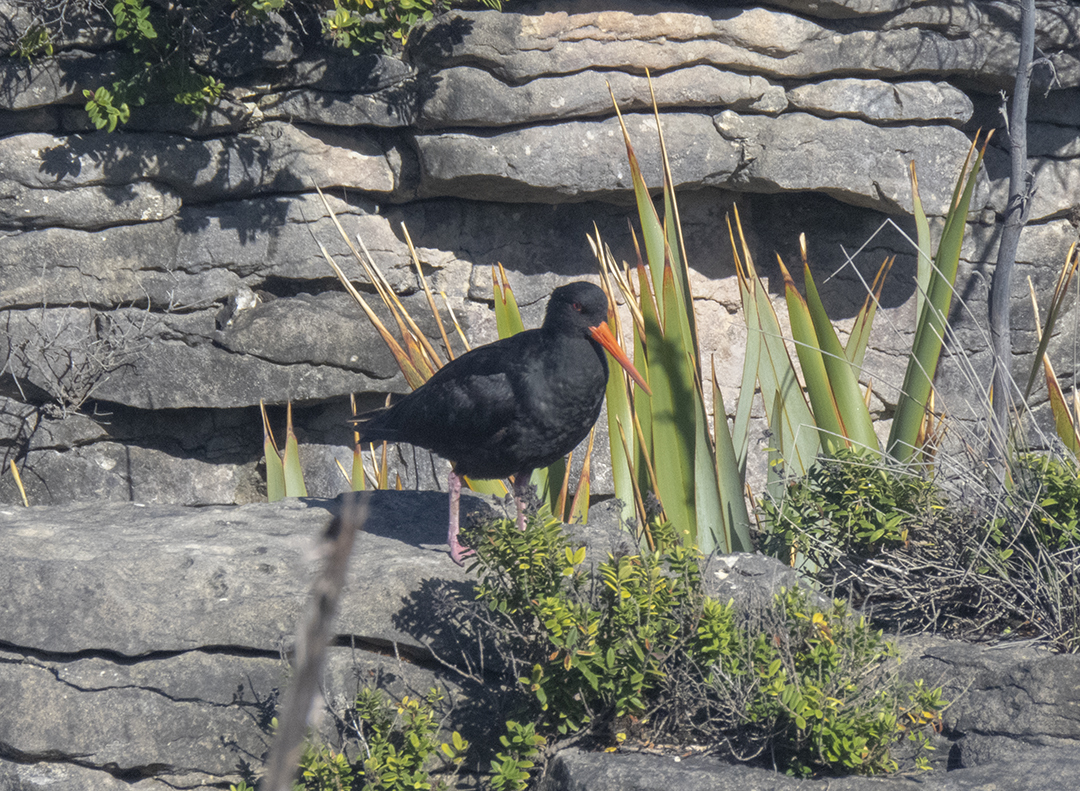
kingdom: Animalia
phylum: Chordata
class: Aves
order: Charadriiformes
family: Haematopodidae
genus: Haematopus
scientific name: Haematopus unicolor
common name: Variable oystercatcher
